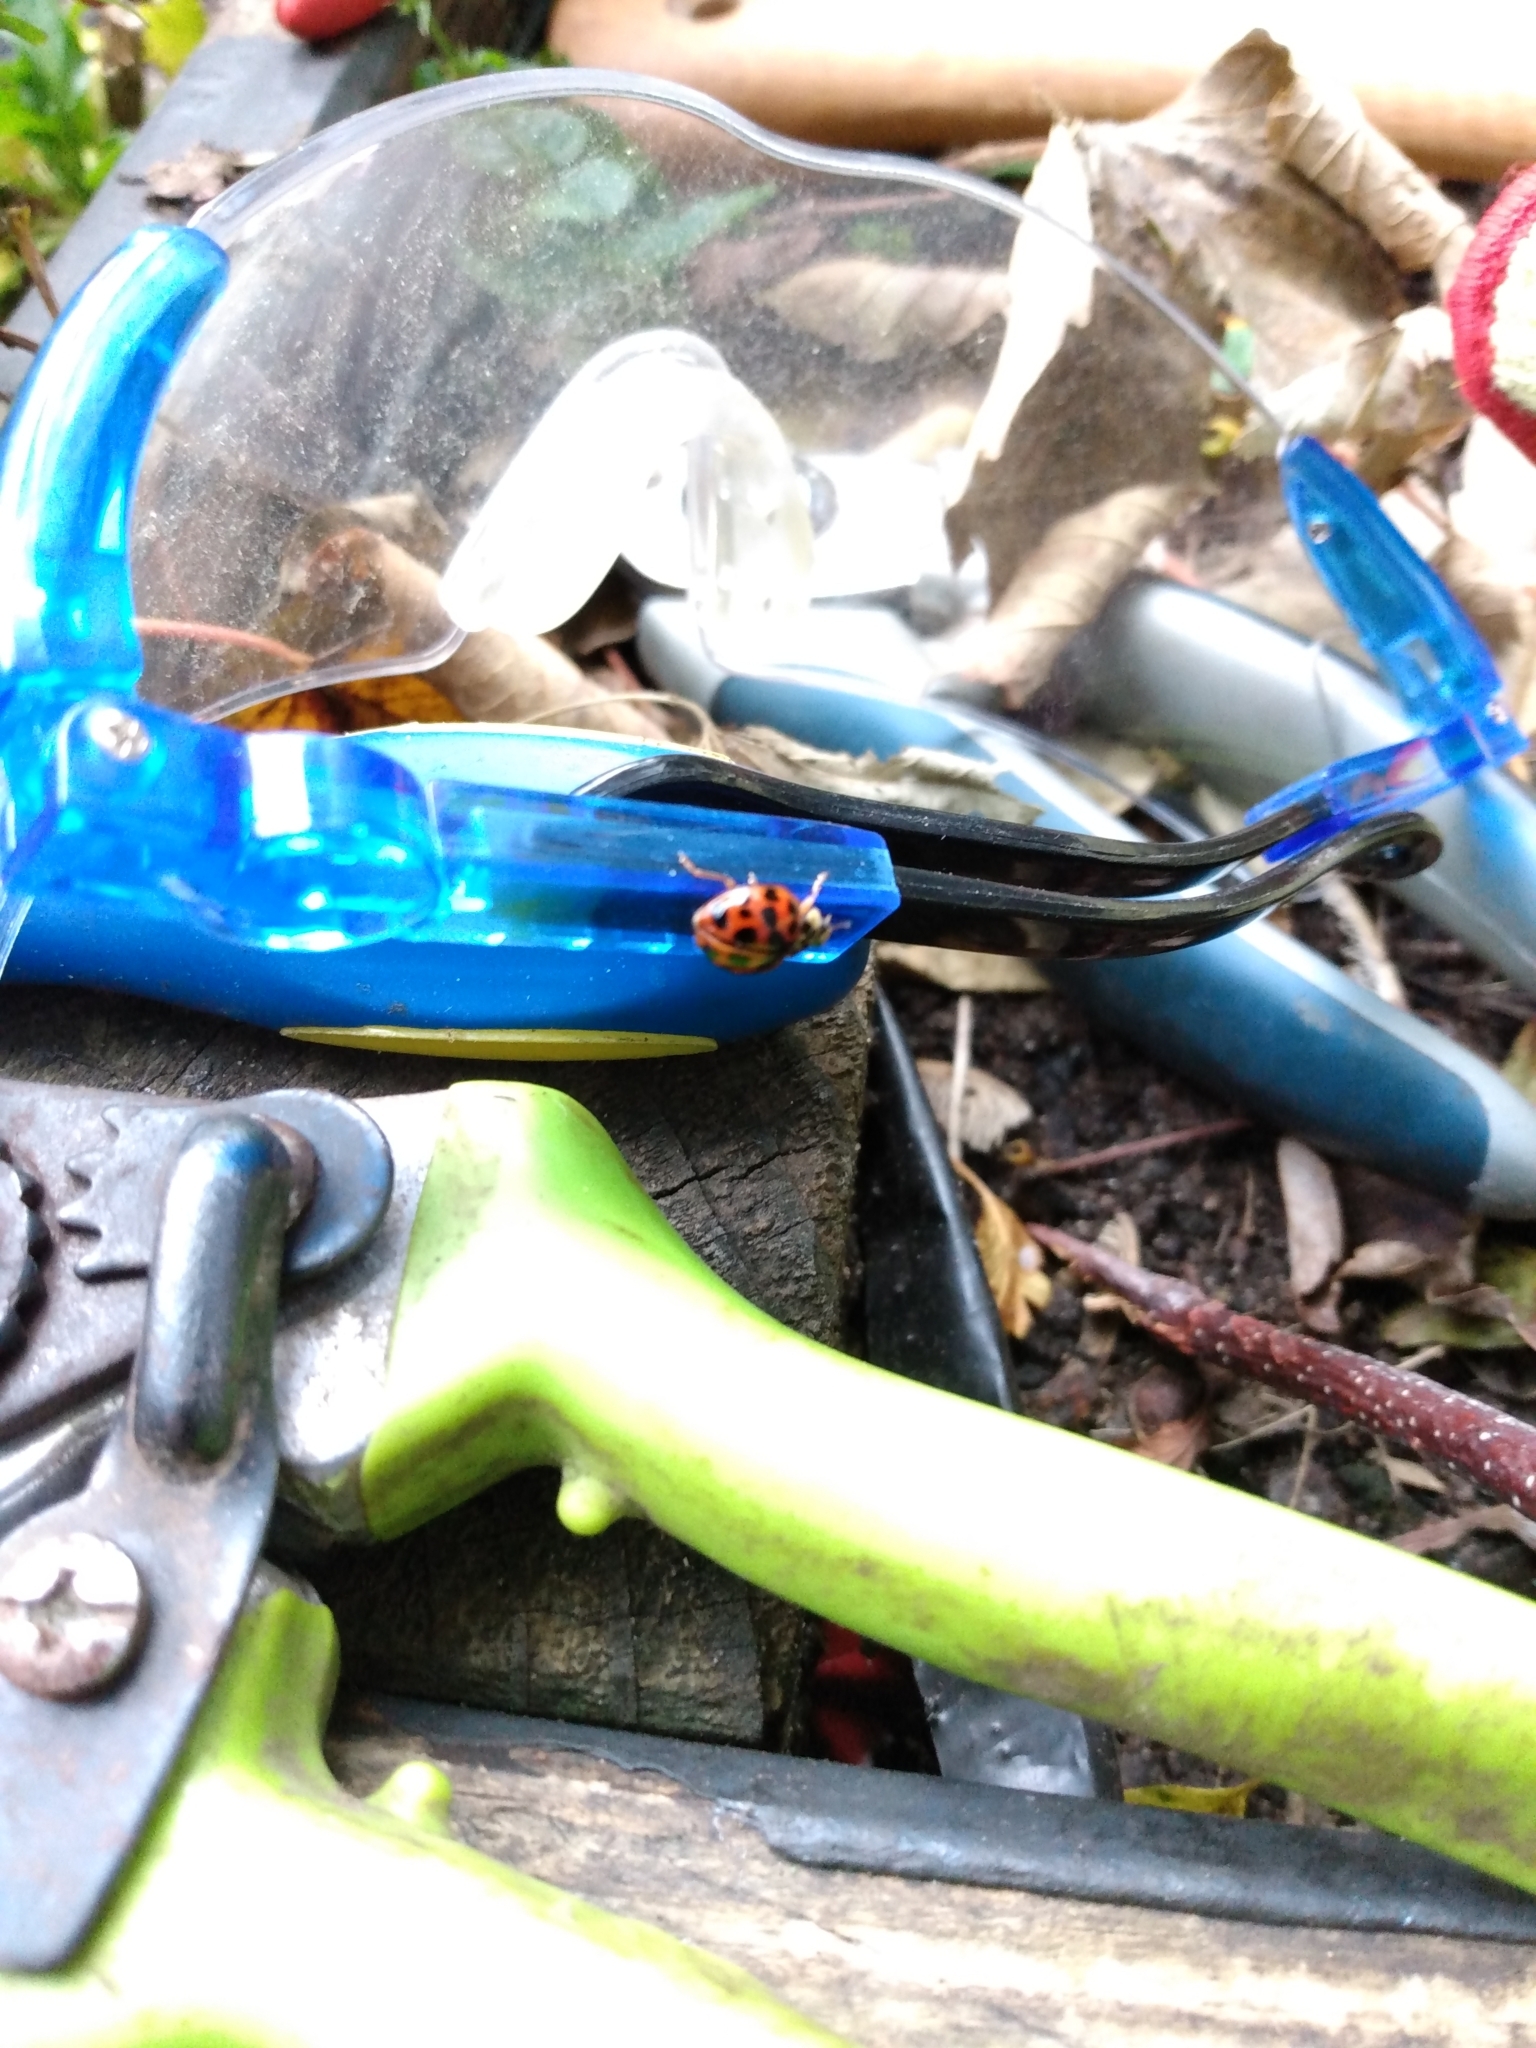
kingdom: Animalia
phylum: Arthropoda
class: Insecta
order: Coleoptera
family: Coccinellidae
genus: Harmonia
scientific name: Harmonia axyridis
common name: Harlequin ladybird
